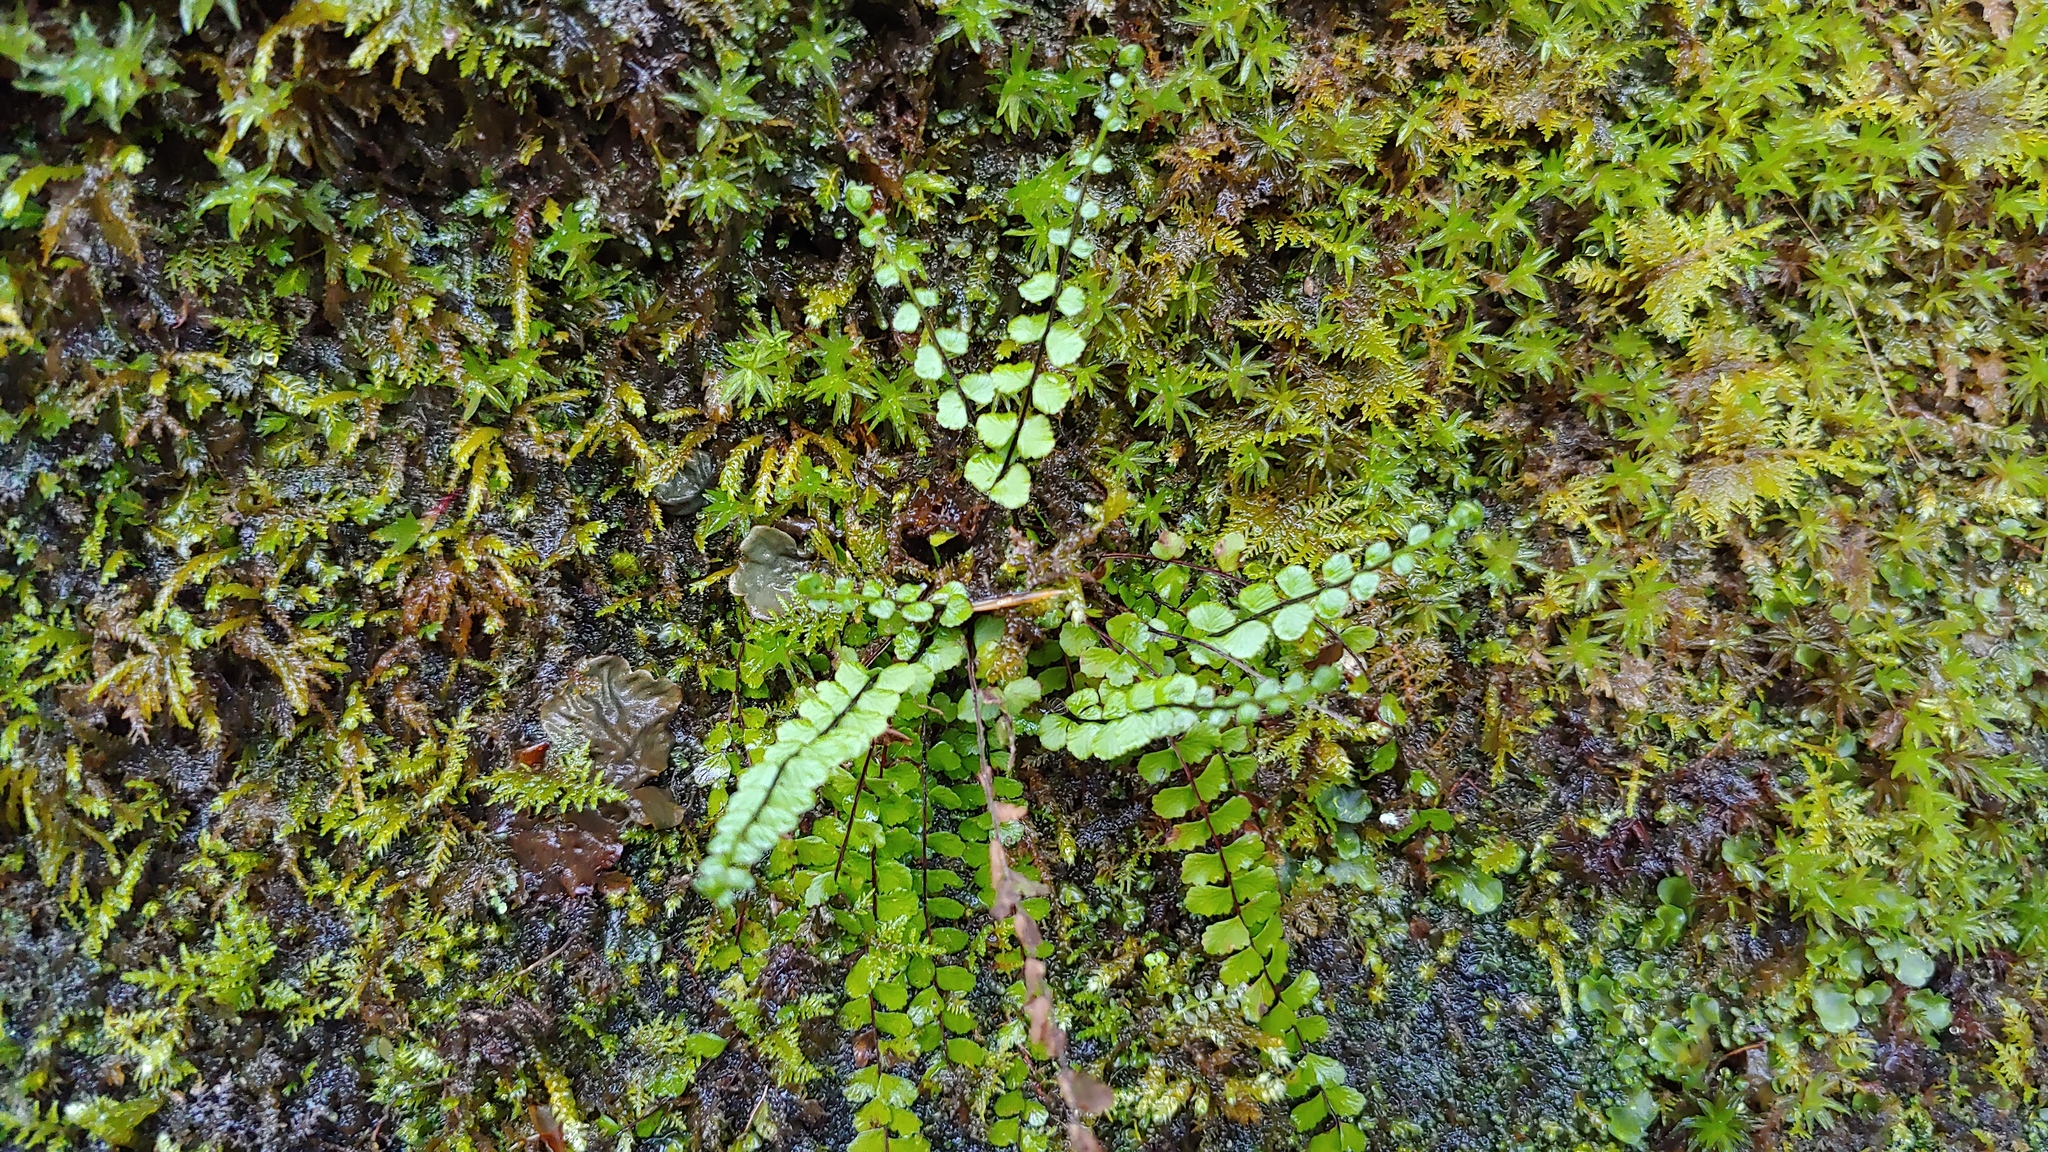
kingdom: Plantae
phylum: Tracheophyta
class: Polypodiopsida
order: Polypodiales
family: Aspleniaceae
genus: Asplenium
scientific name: Asplenium trichomanes
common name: Maidenhair spleenwort
